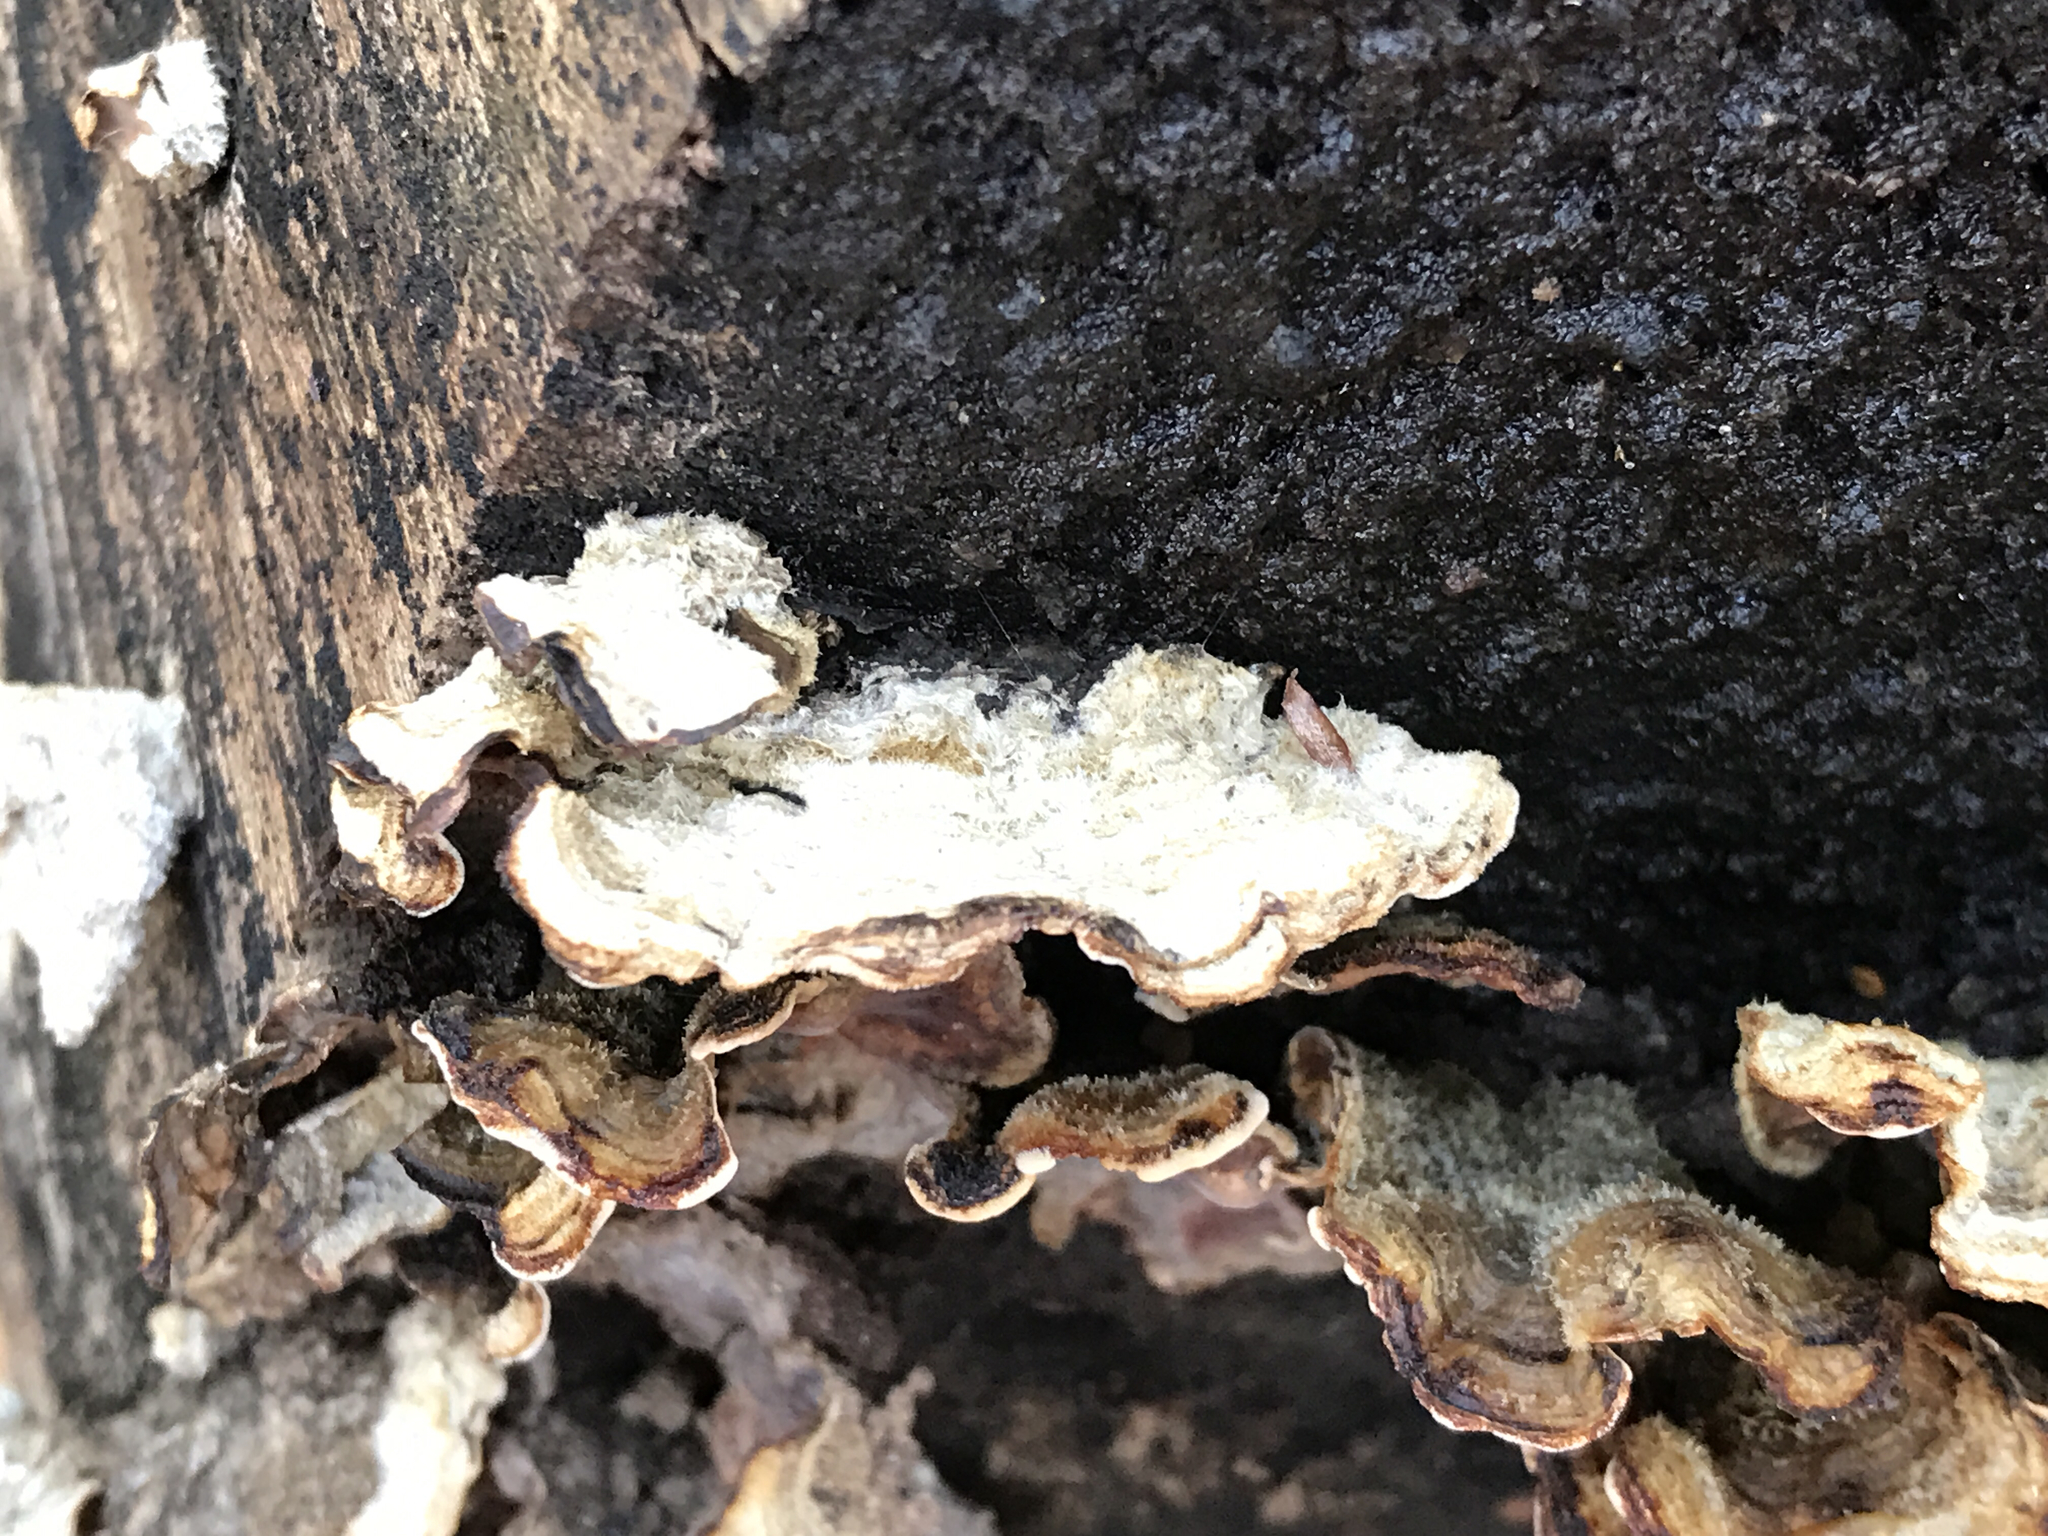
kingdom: Fungi
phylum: Basidiomycota
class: Agaricomycetes
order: Russulales
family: Stereaceae
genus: Stereum
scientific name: Stereum hirsutum
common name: Hairy curtain crust
